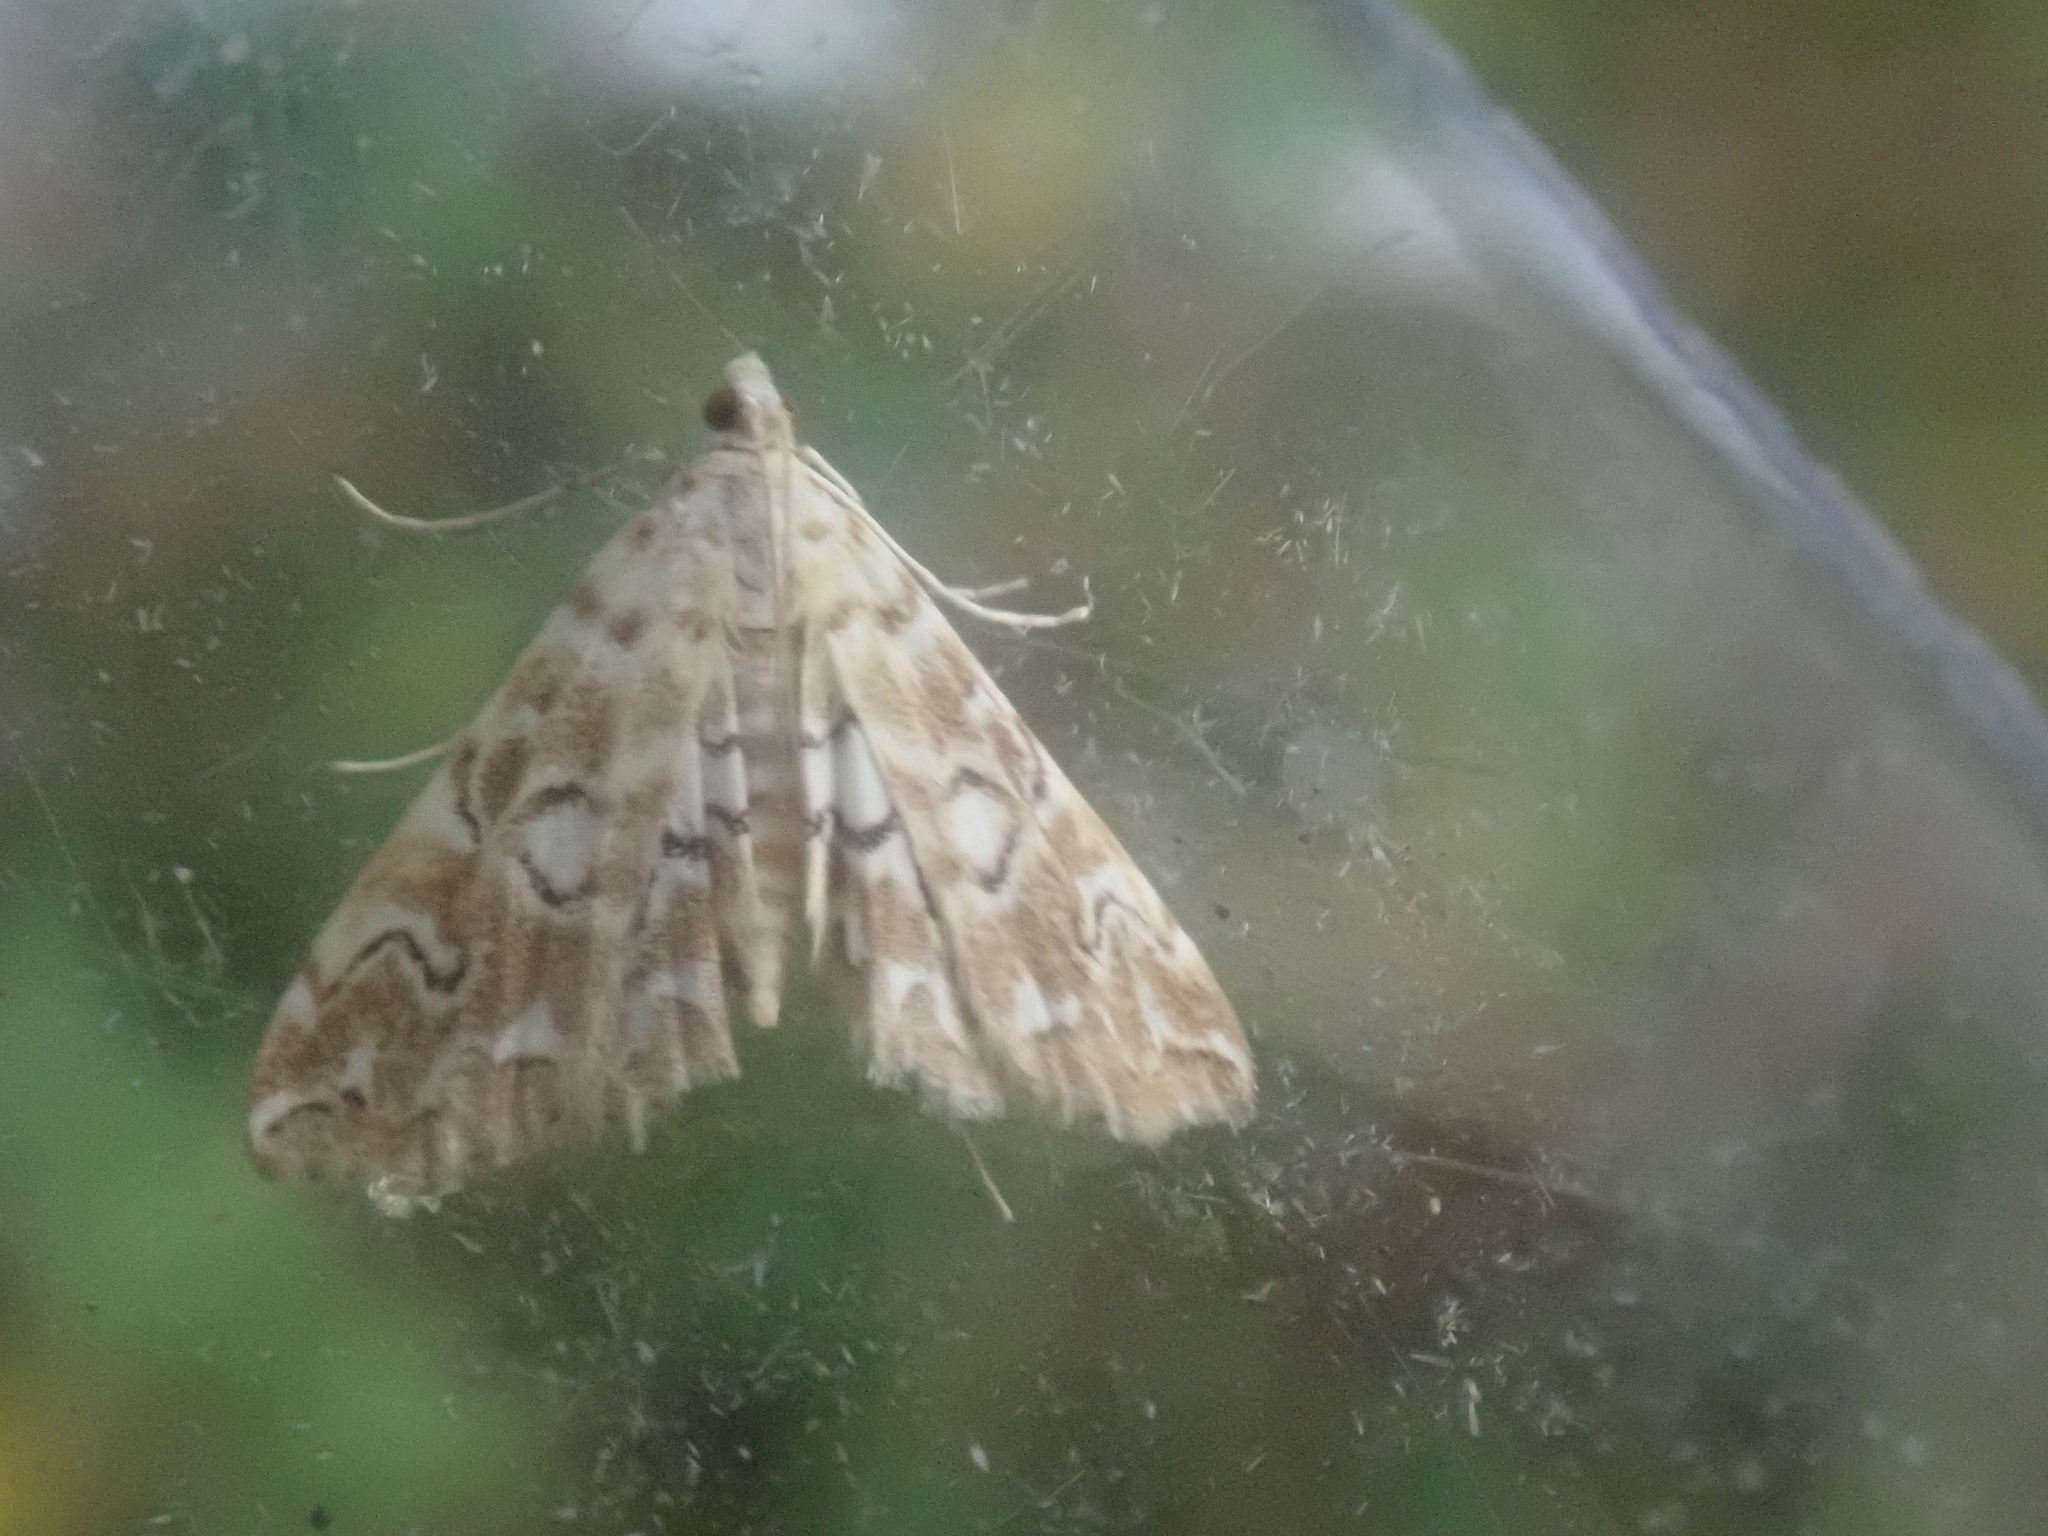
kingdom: Animalia
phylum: Arthropoda
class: Insecta
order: Lepidoptera
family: Crambidae
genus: Elophila
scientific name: Elophila icciusalis
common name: Pondside pyralid moth
